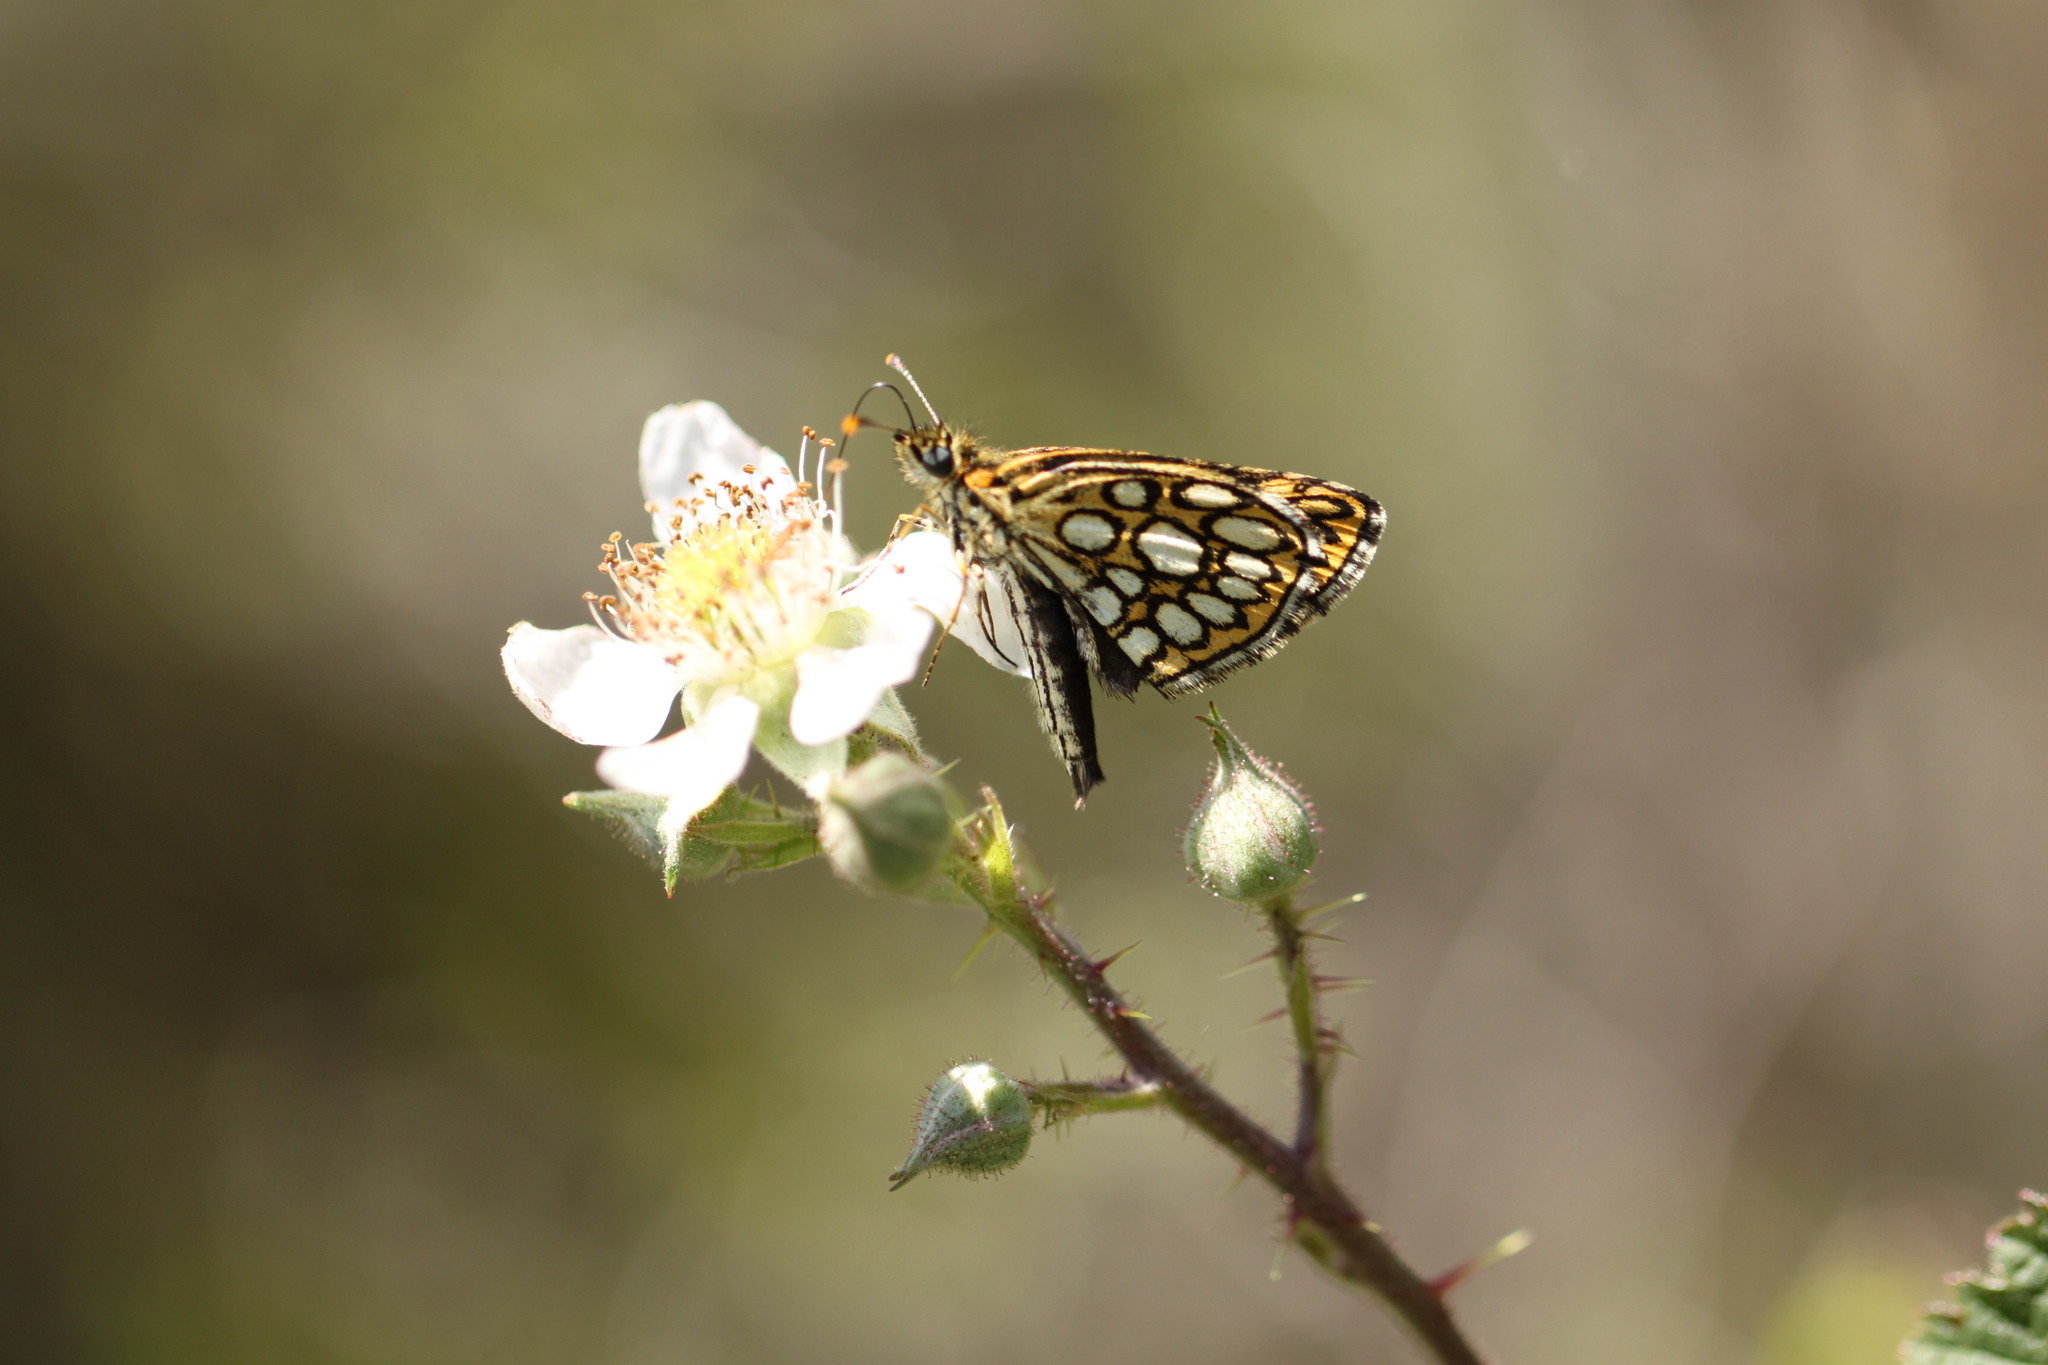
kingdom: Animalia
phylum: Arthropoda
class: Insecta
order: Lepidoptera
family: Hesperiidae
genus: Heteropterus
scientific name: Heteropterus morpheus
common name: Large chequered skipper
